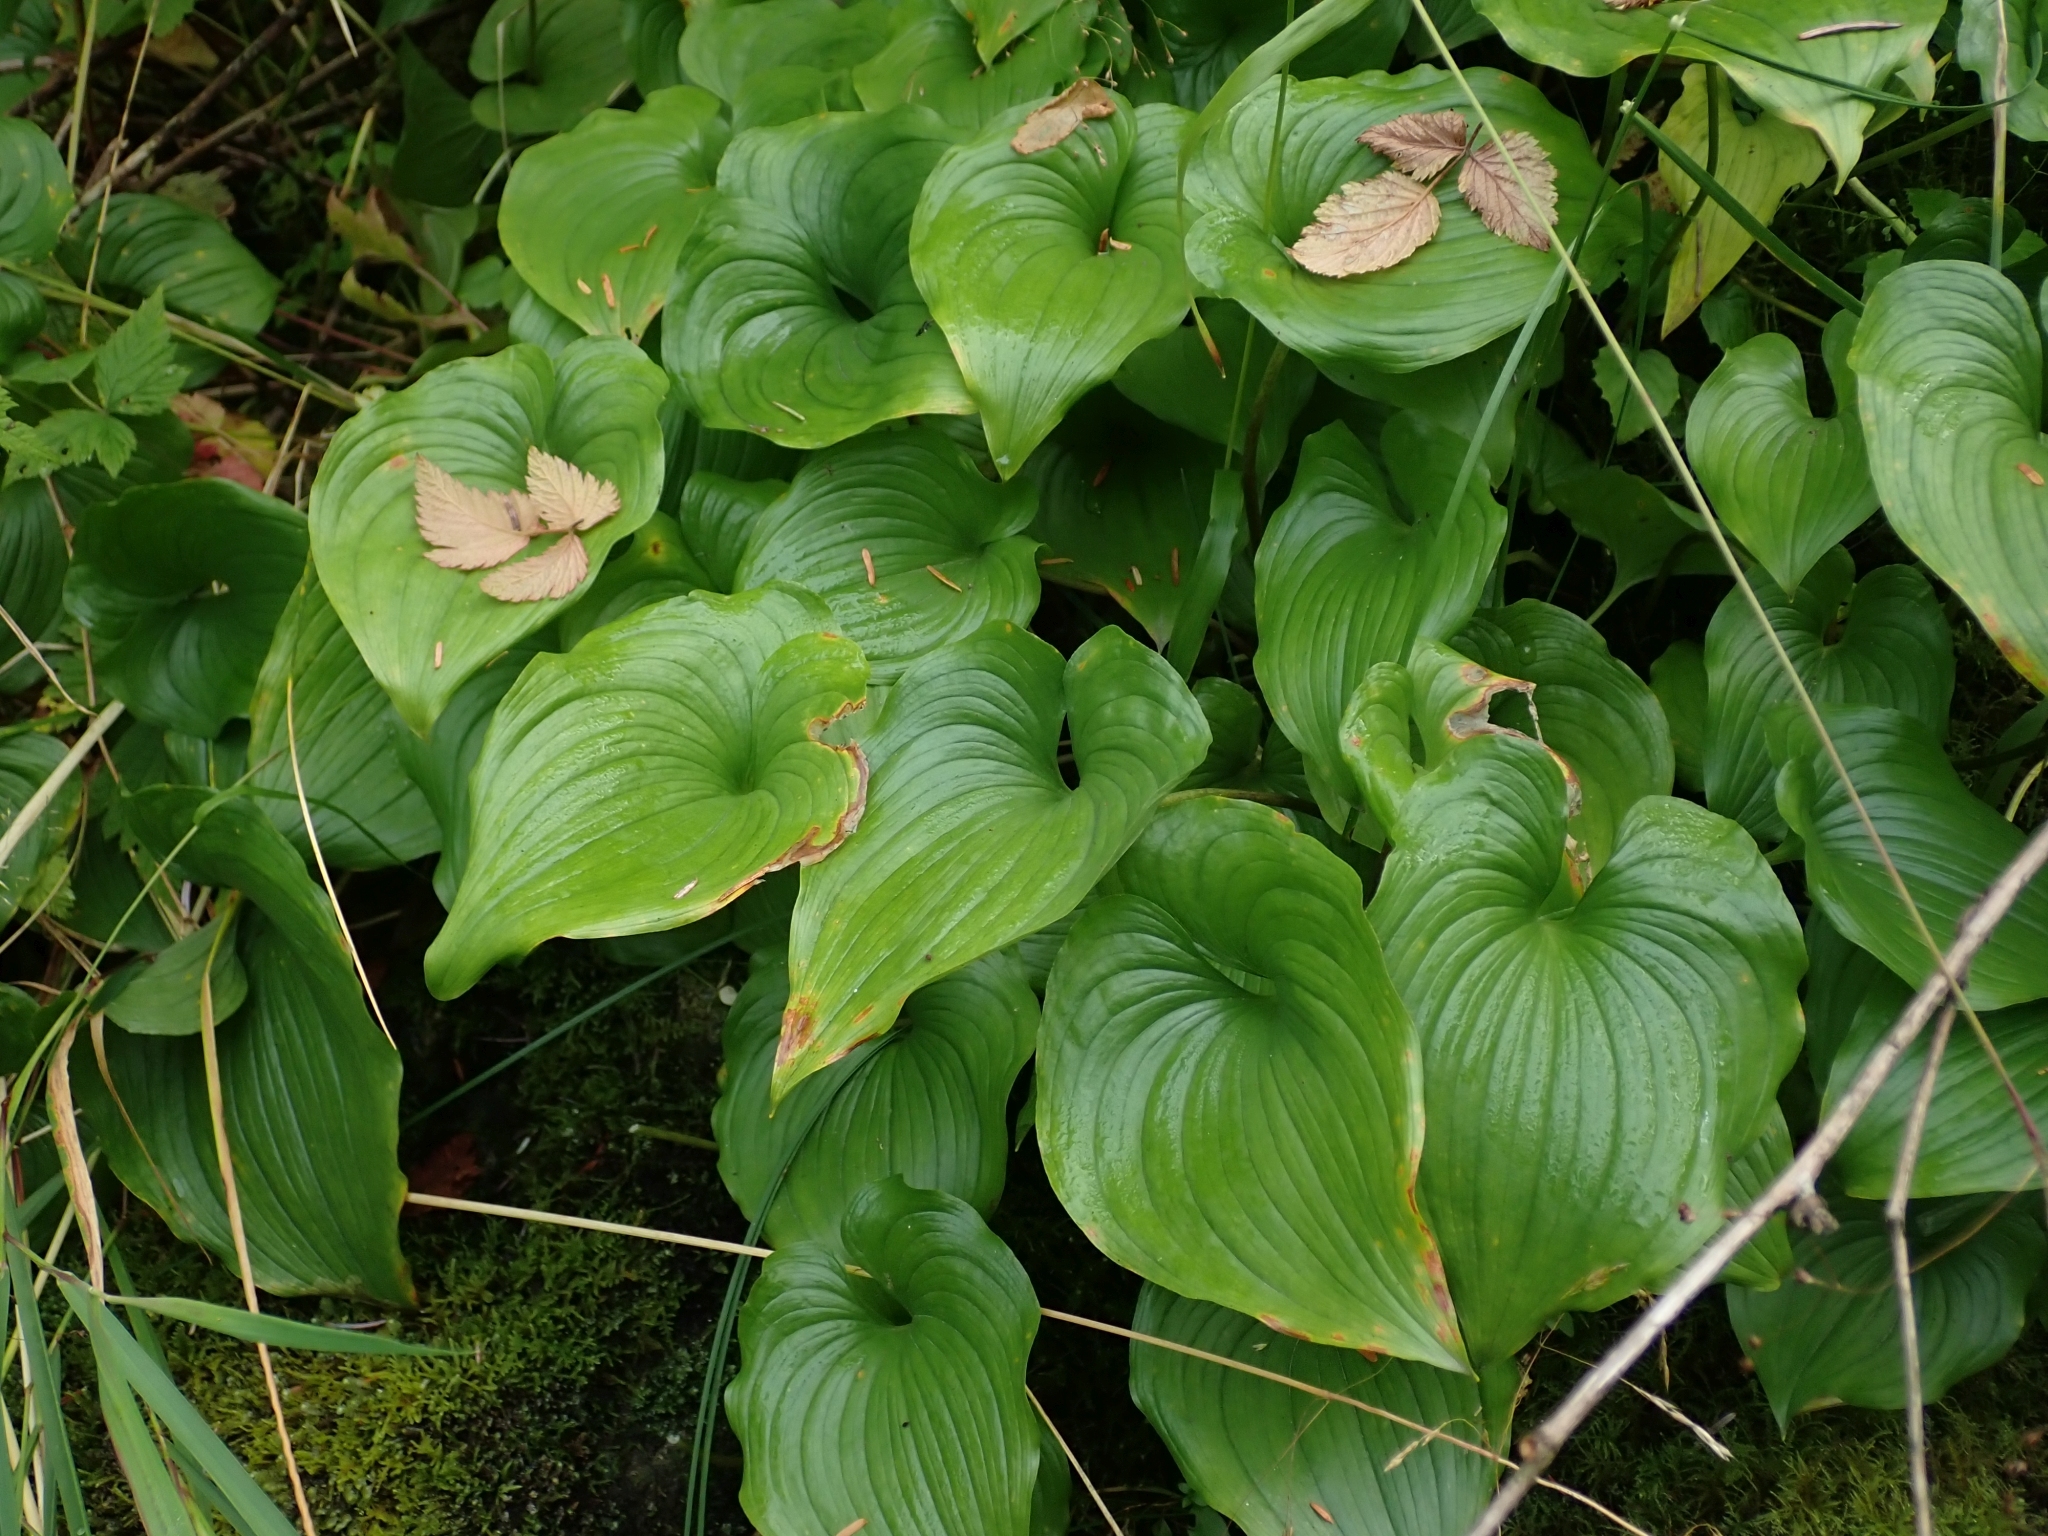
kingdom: Plantae
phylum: Tracheophyta
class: Liliopsida
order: Asparagales
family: Asparagaceae
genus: Maianthemum
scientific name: Maianthemum dilatatum
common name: False lily-of-the-valley
